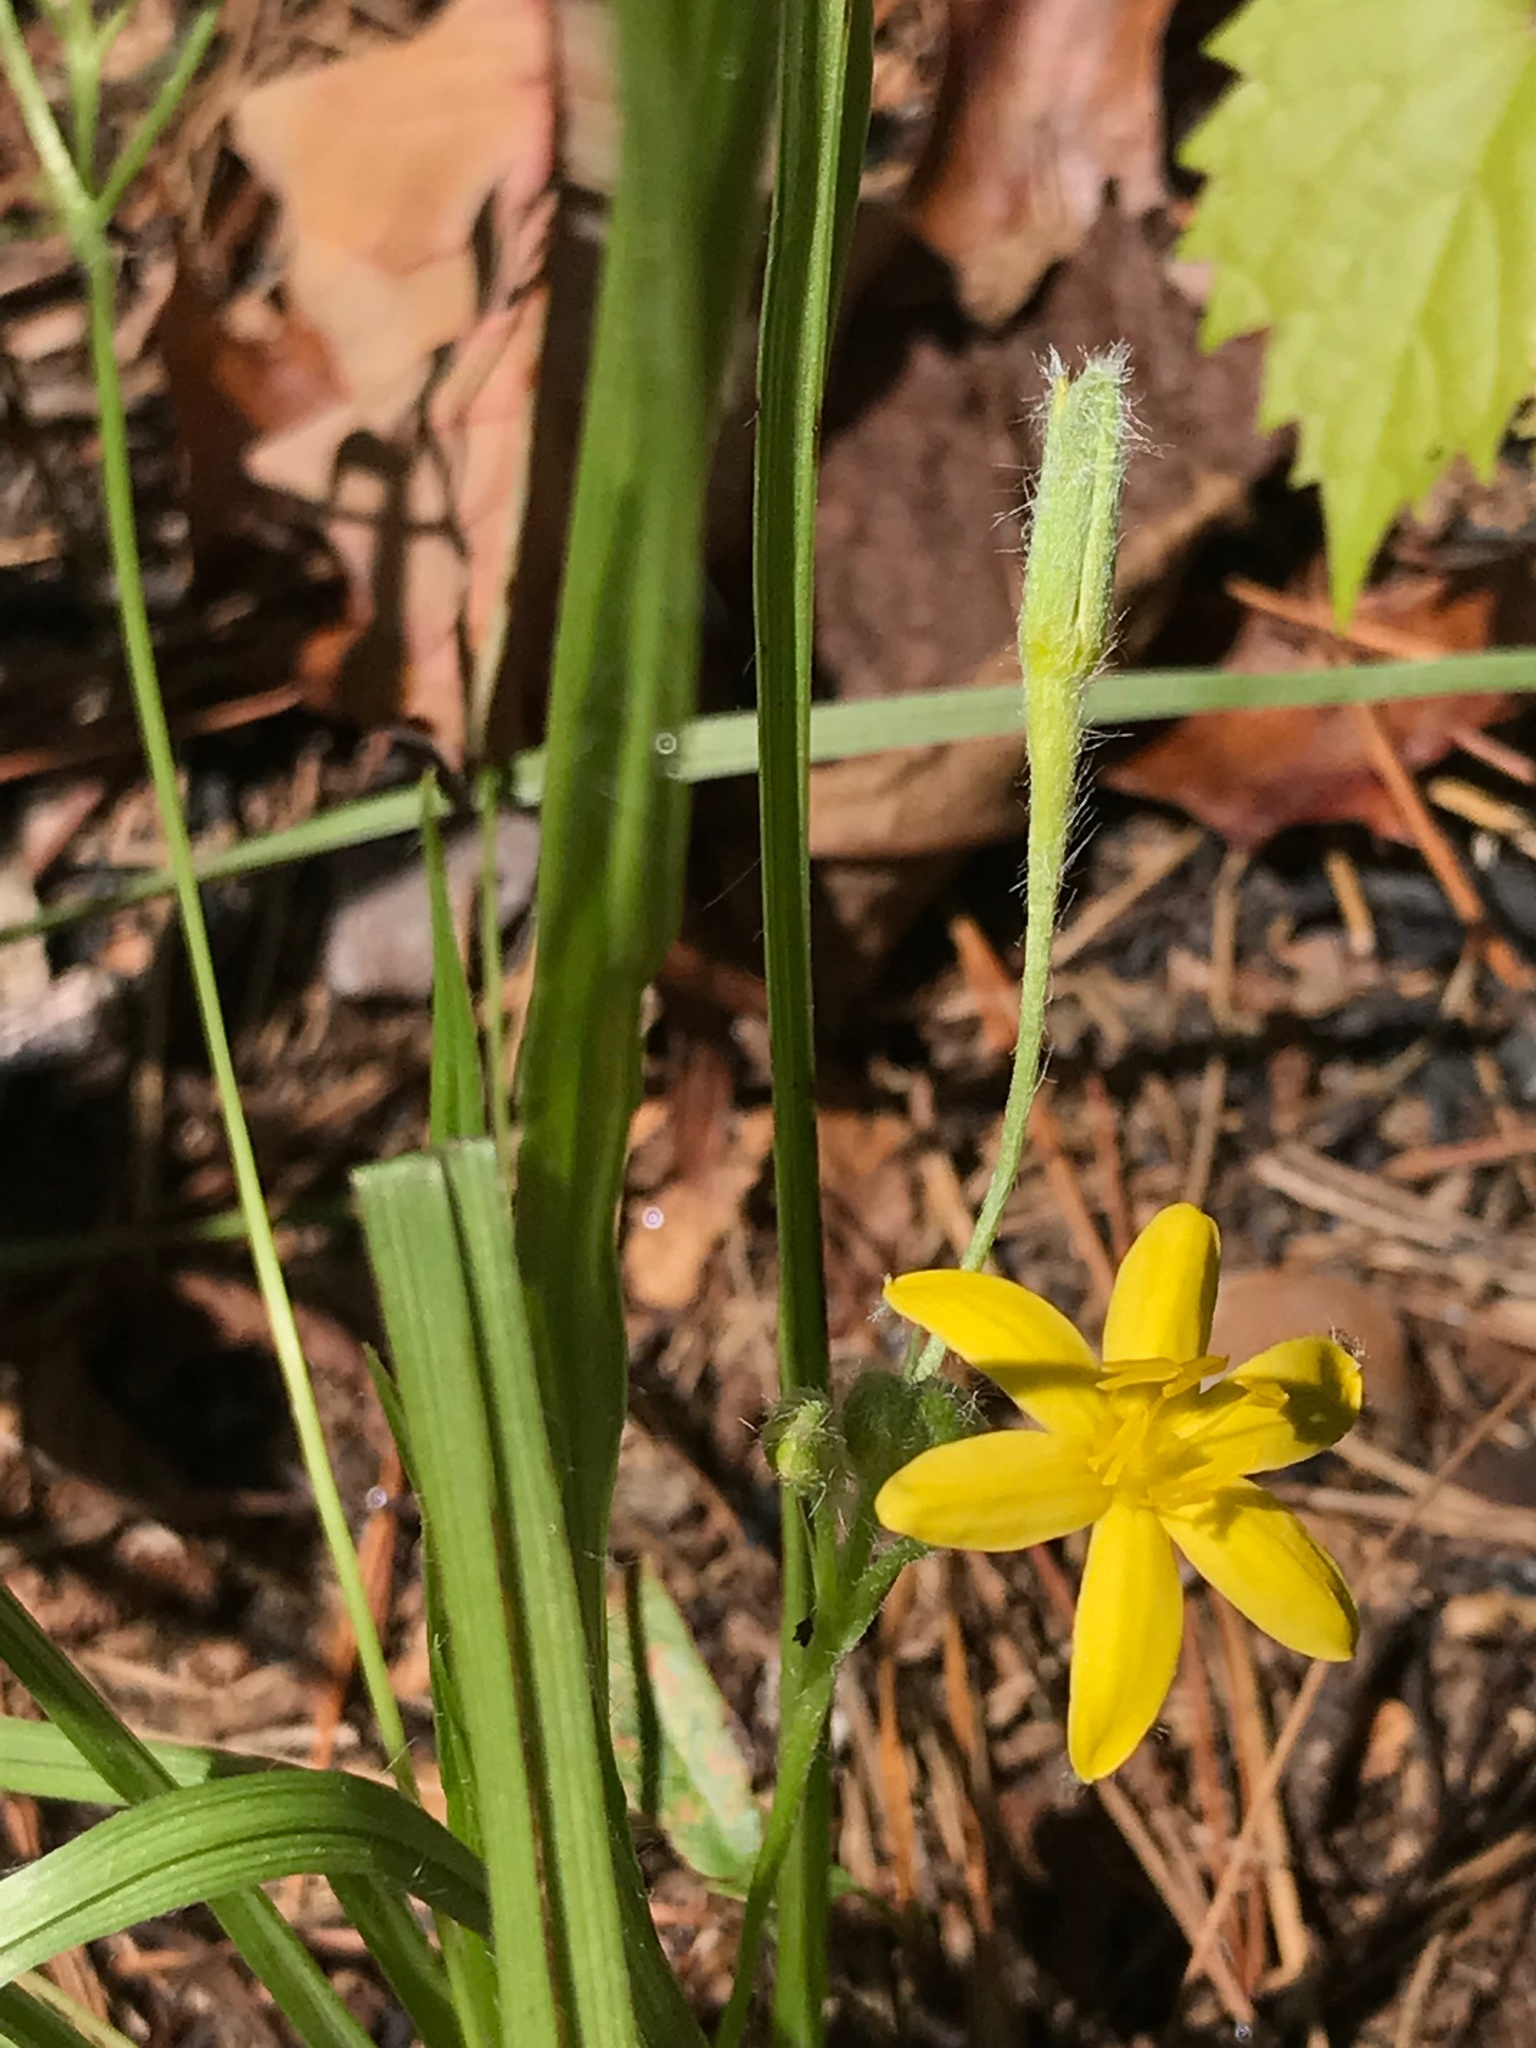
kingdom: Plantae
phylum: Tracheophyta
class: Liliopsida
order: Asparagales
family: Hypoxidaceae
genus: Hypoxis
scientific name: Hypoxis hirsuta
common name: Common goldstar
